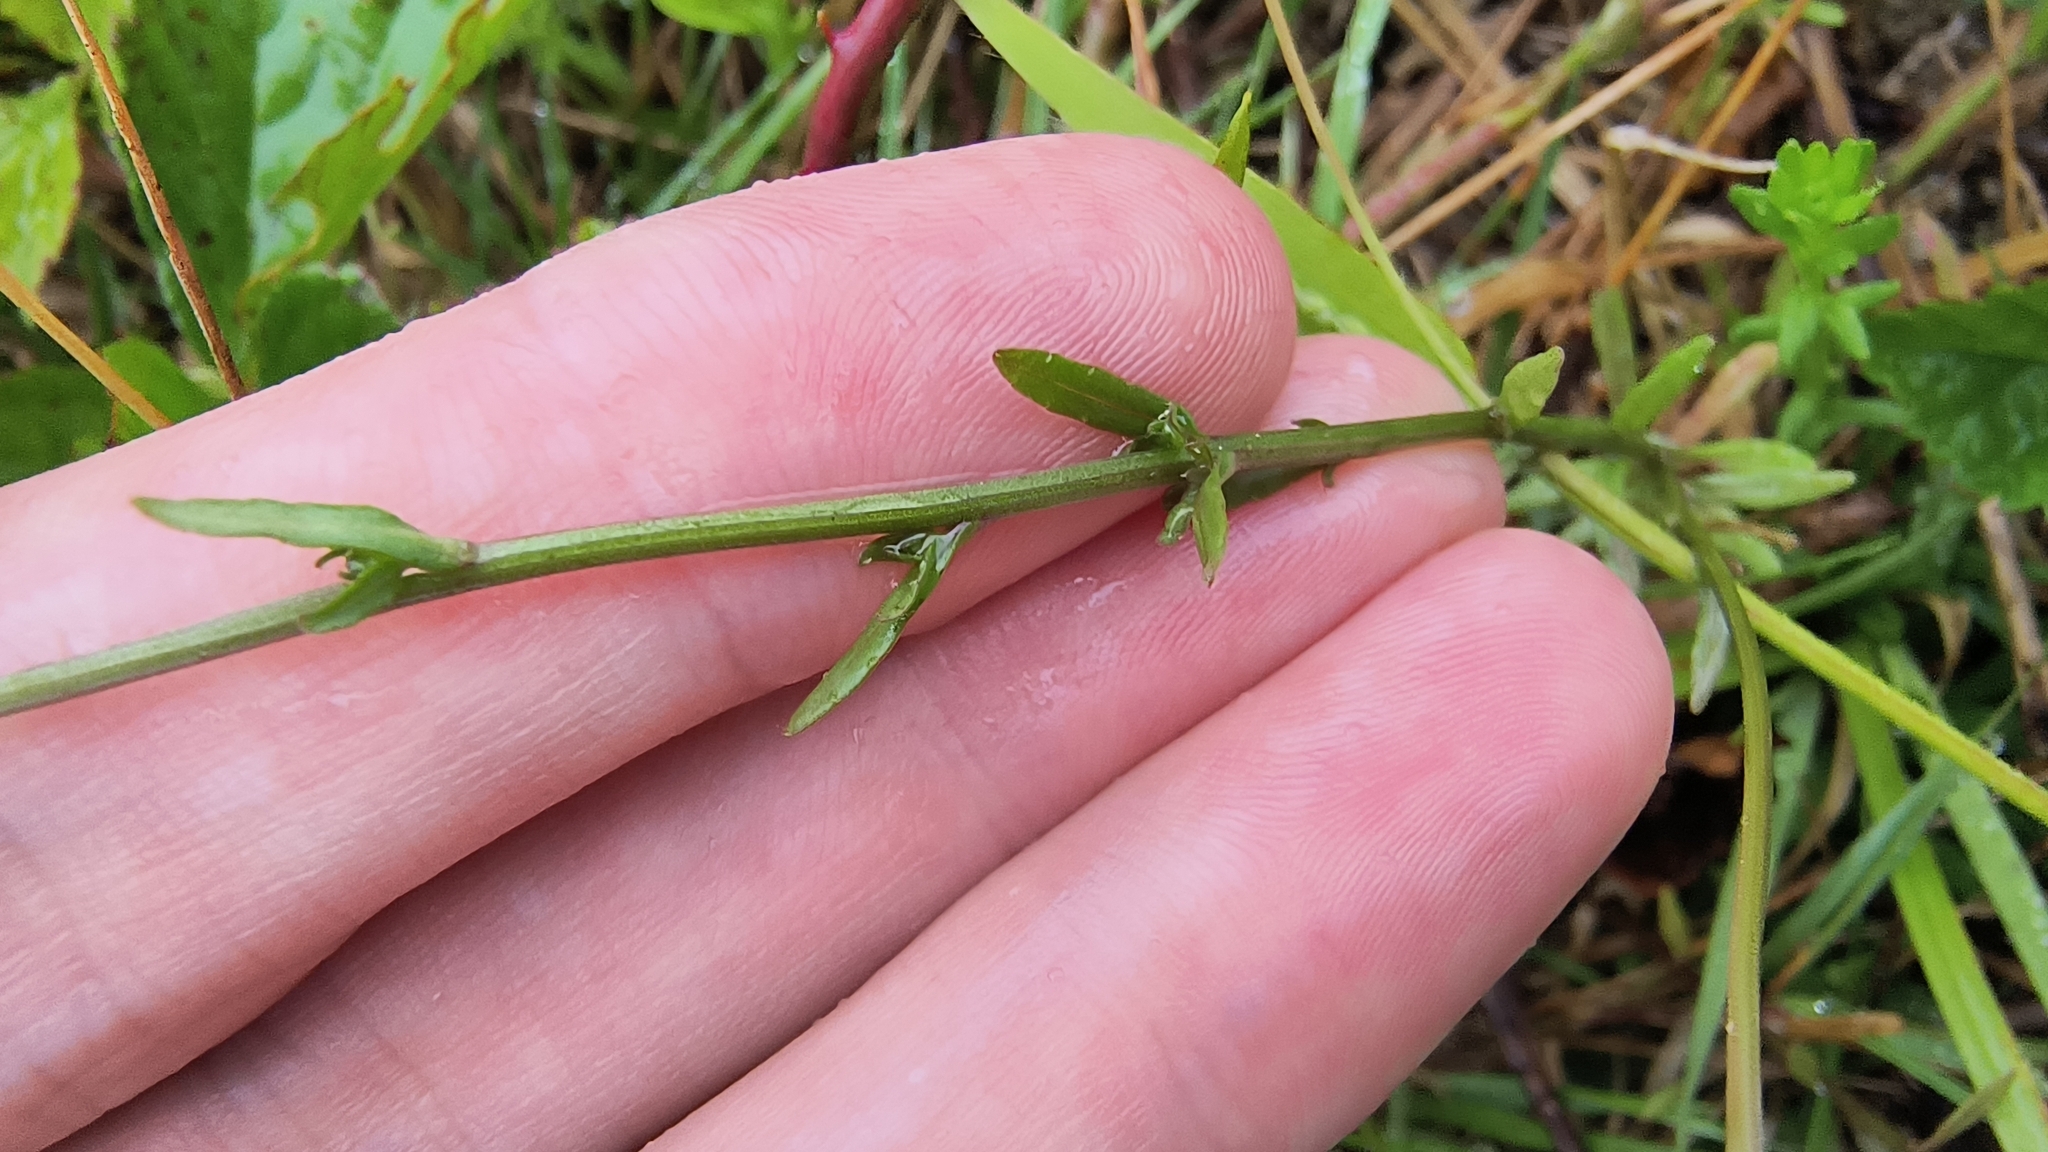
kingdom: Plantae
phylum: Tracheophyta
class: Magnoliopsida
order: Asterales
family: Campanulaceae
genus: Jasione
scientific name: Jasione montana
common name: Sheep's-bit
